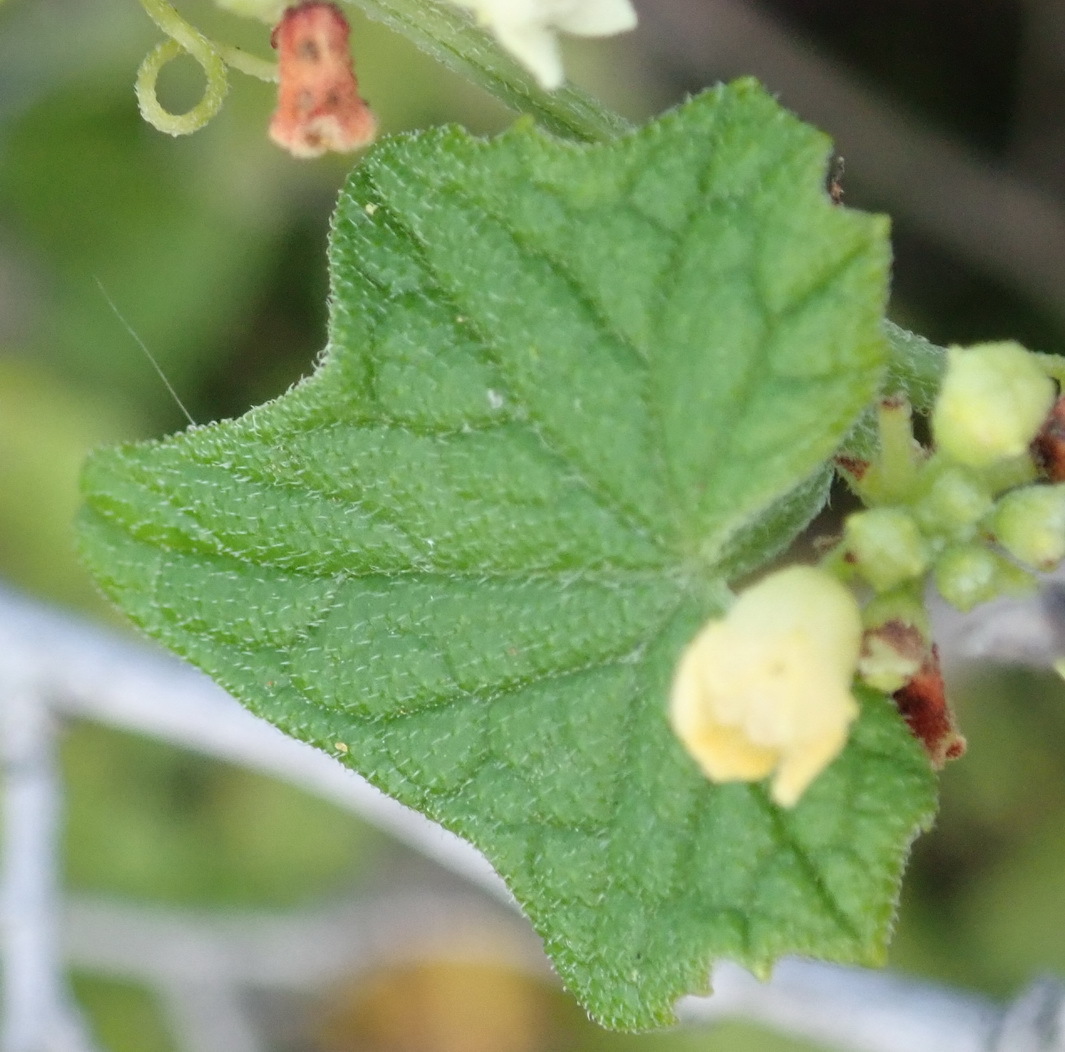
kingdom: Plantae
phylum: Tracheophyta
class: Magnoliopsida
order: Cucurbitales
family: Cucurbitaceae
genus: Zehneria
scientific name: Zehneria scabra
